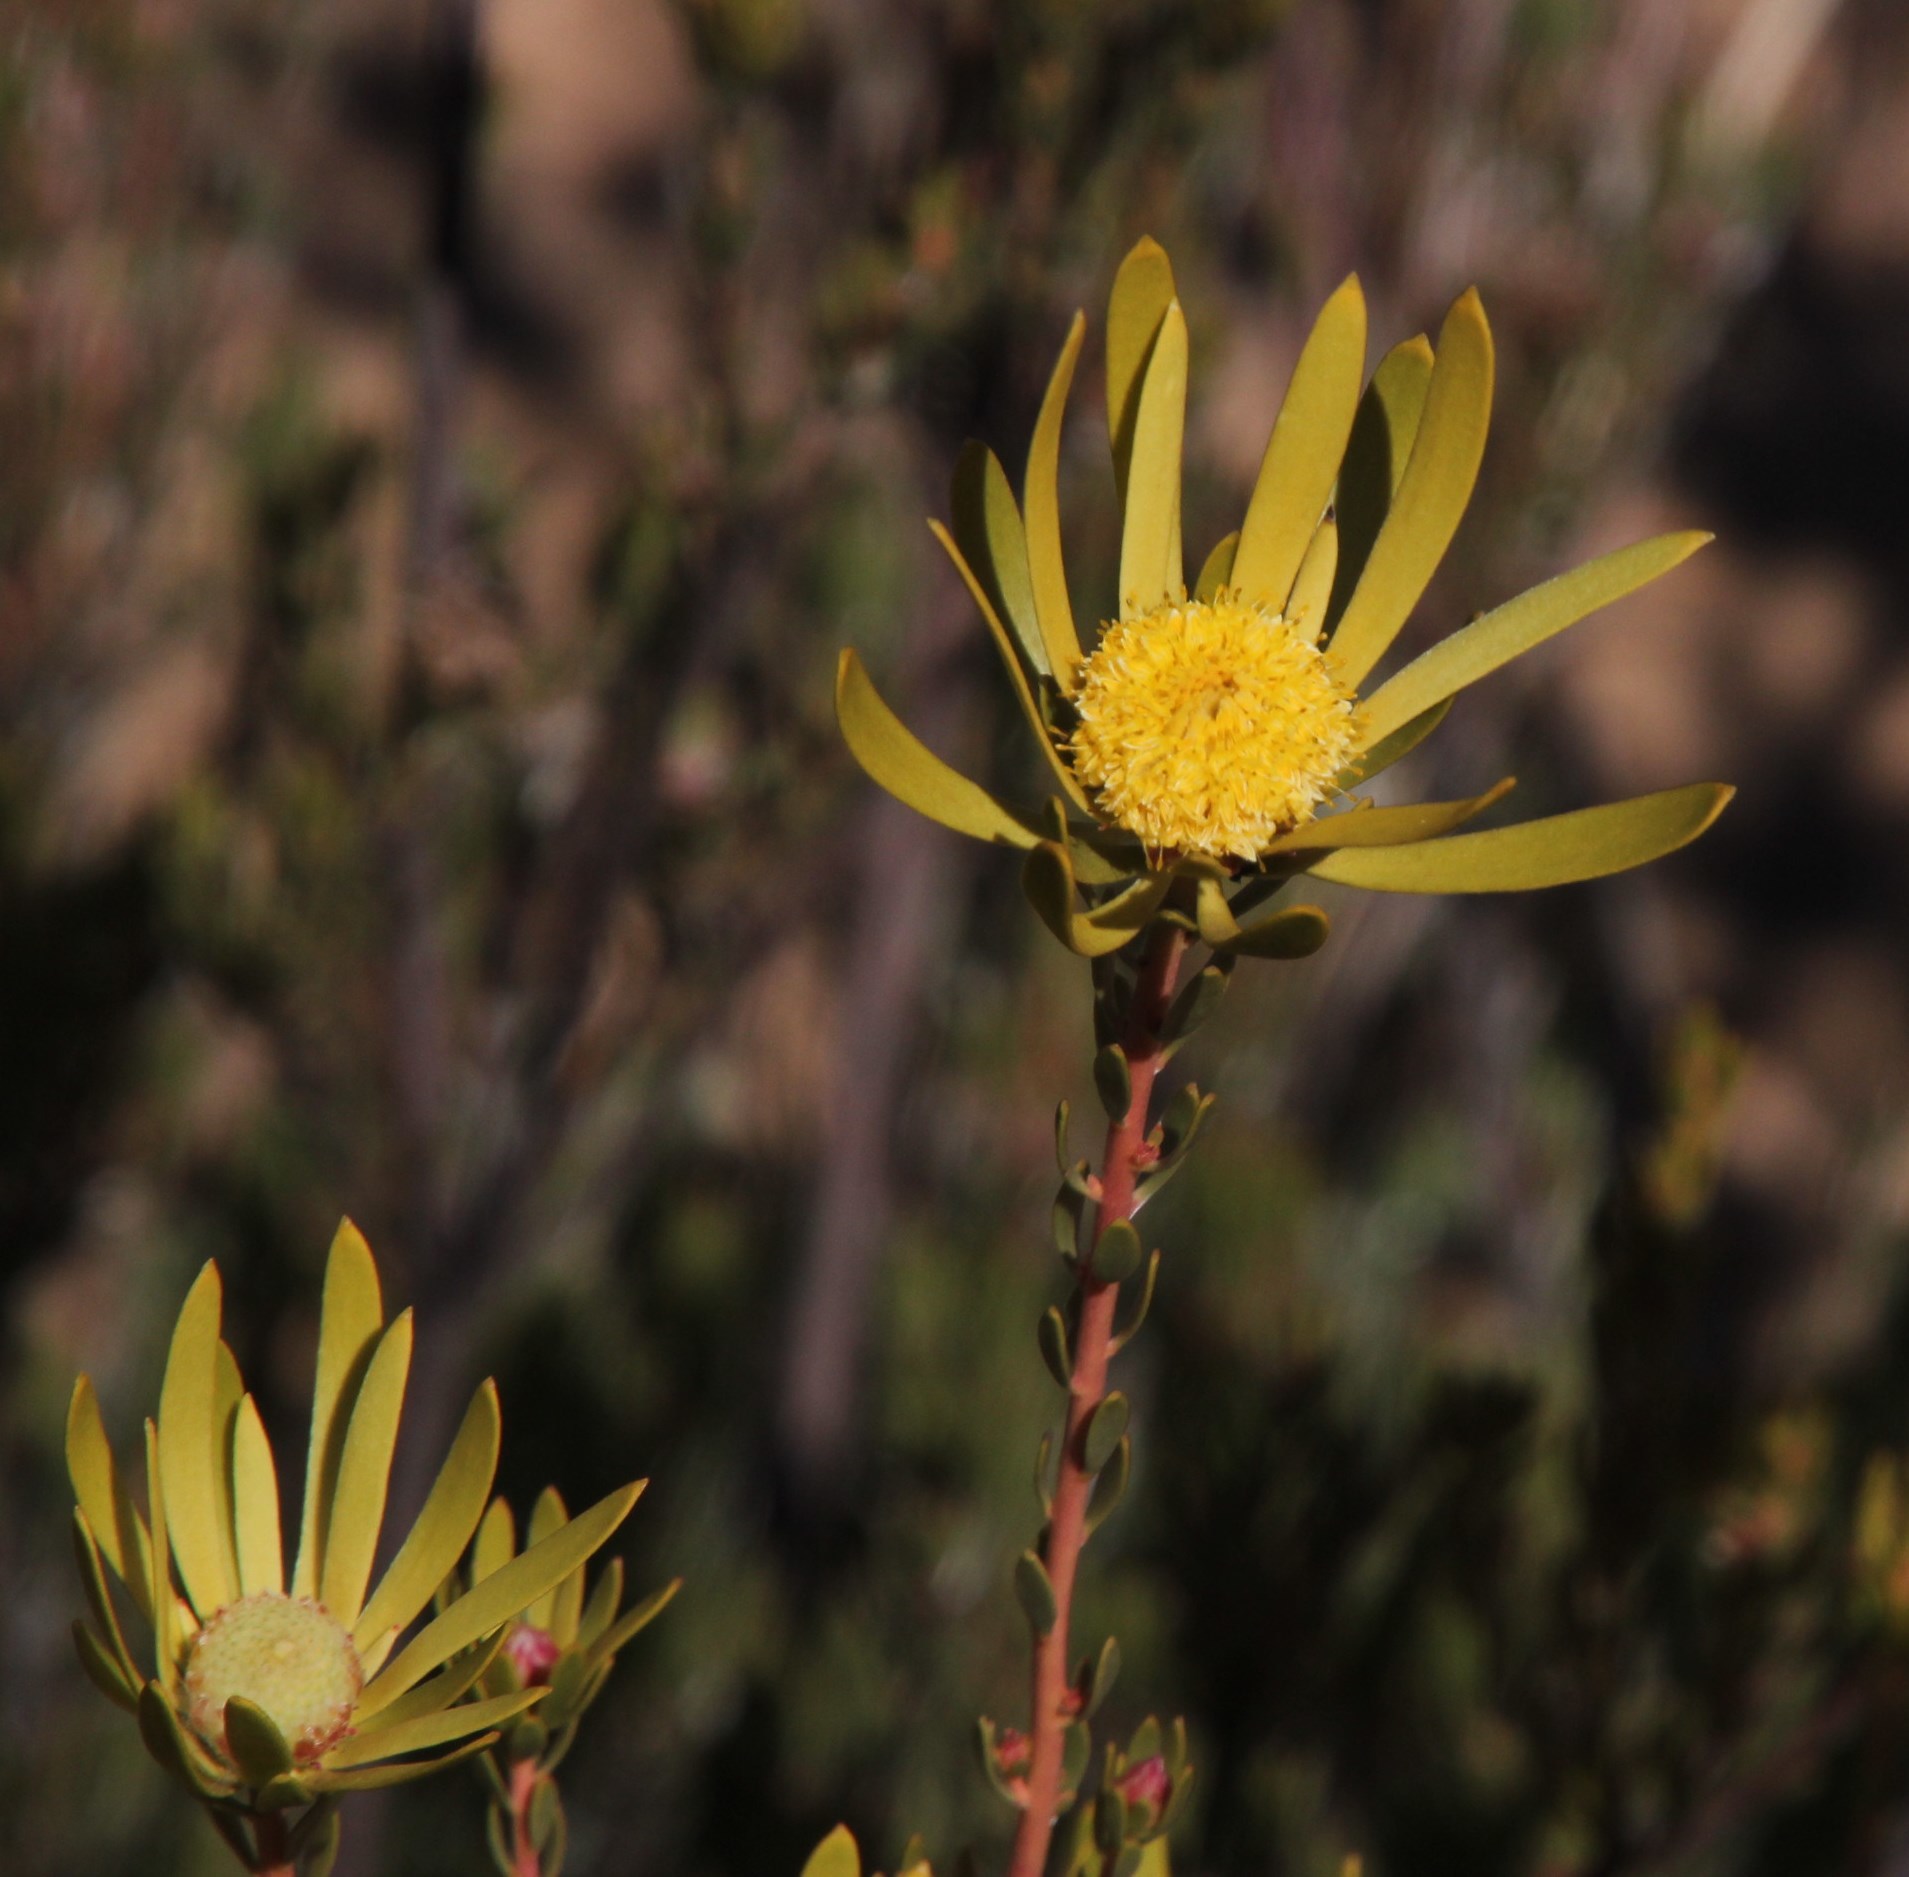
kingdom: Plantae
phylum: Tracheophyta
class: Magnoliopsida
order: Proteales
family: Proteaceae
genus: Leucadendron
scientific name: Leucadendron nitidum
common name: Bokkeveld conebush
